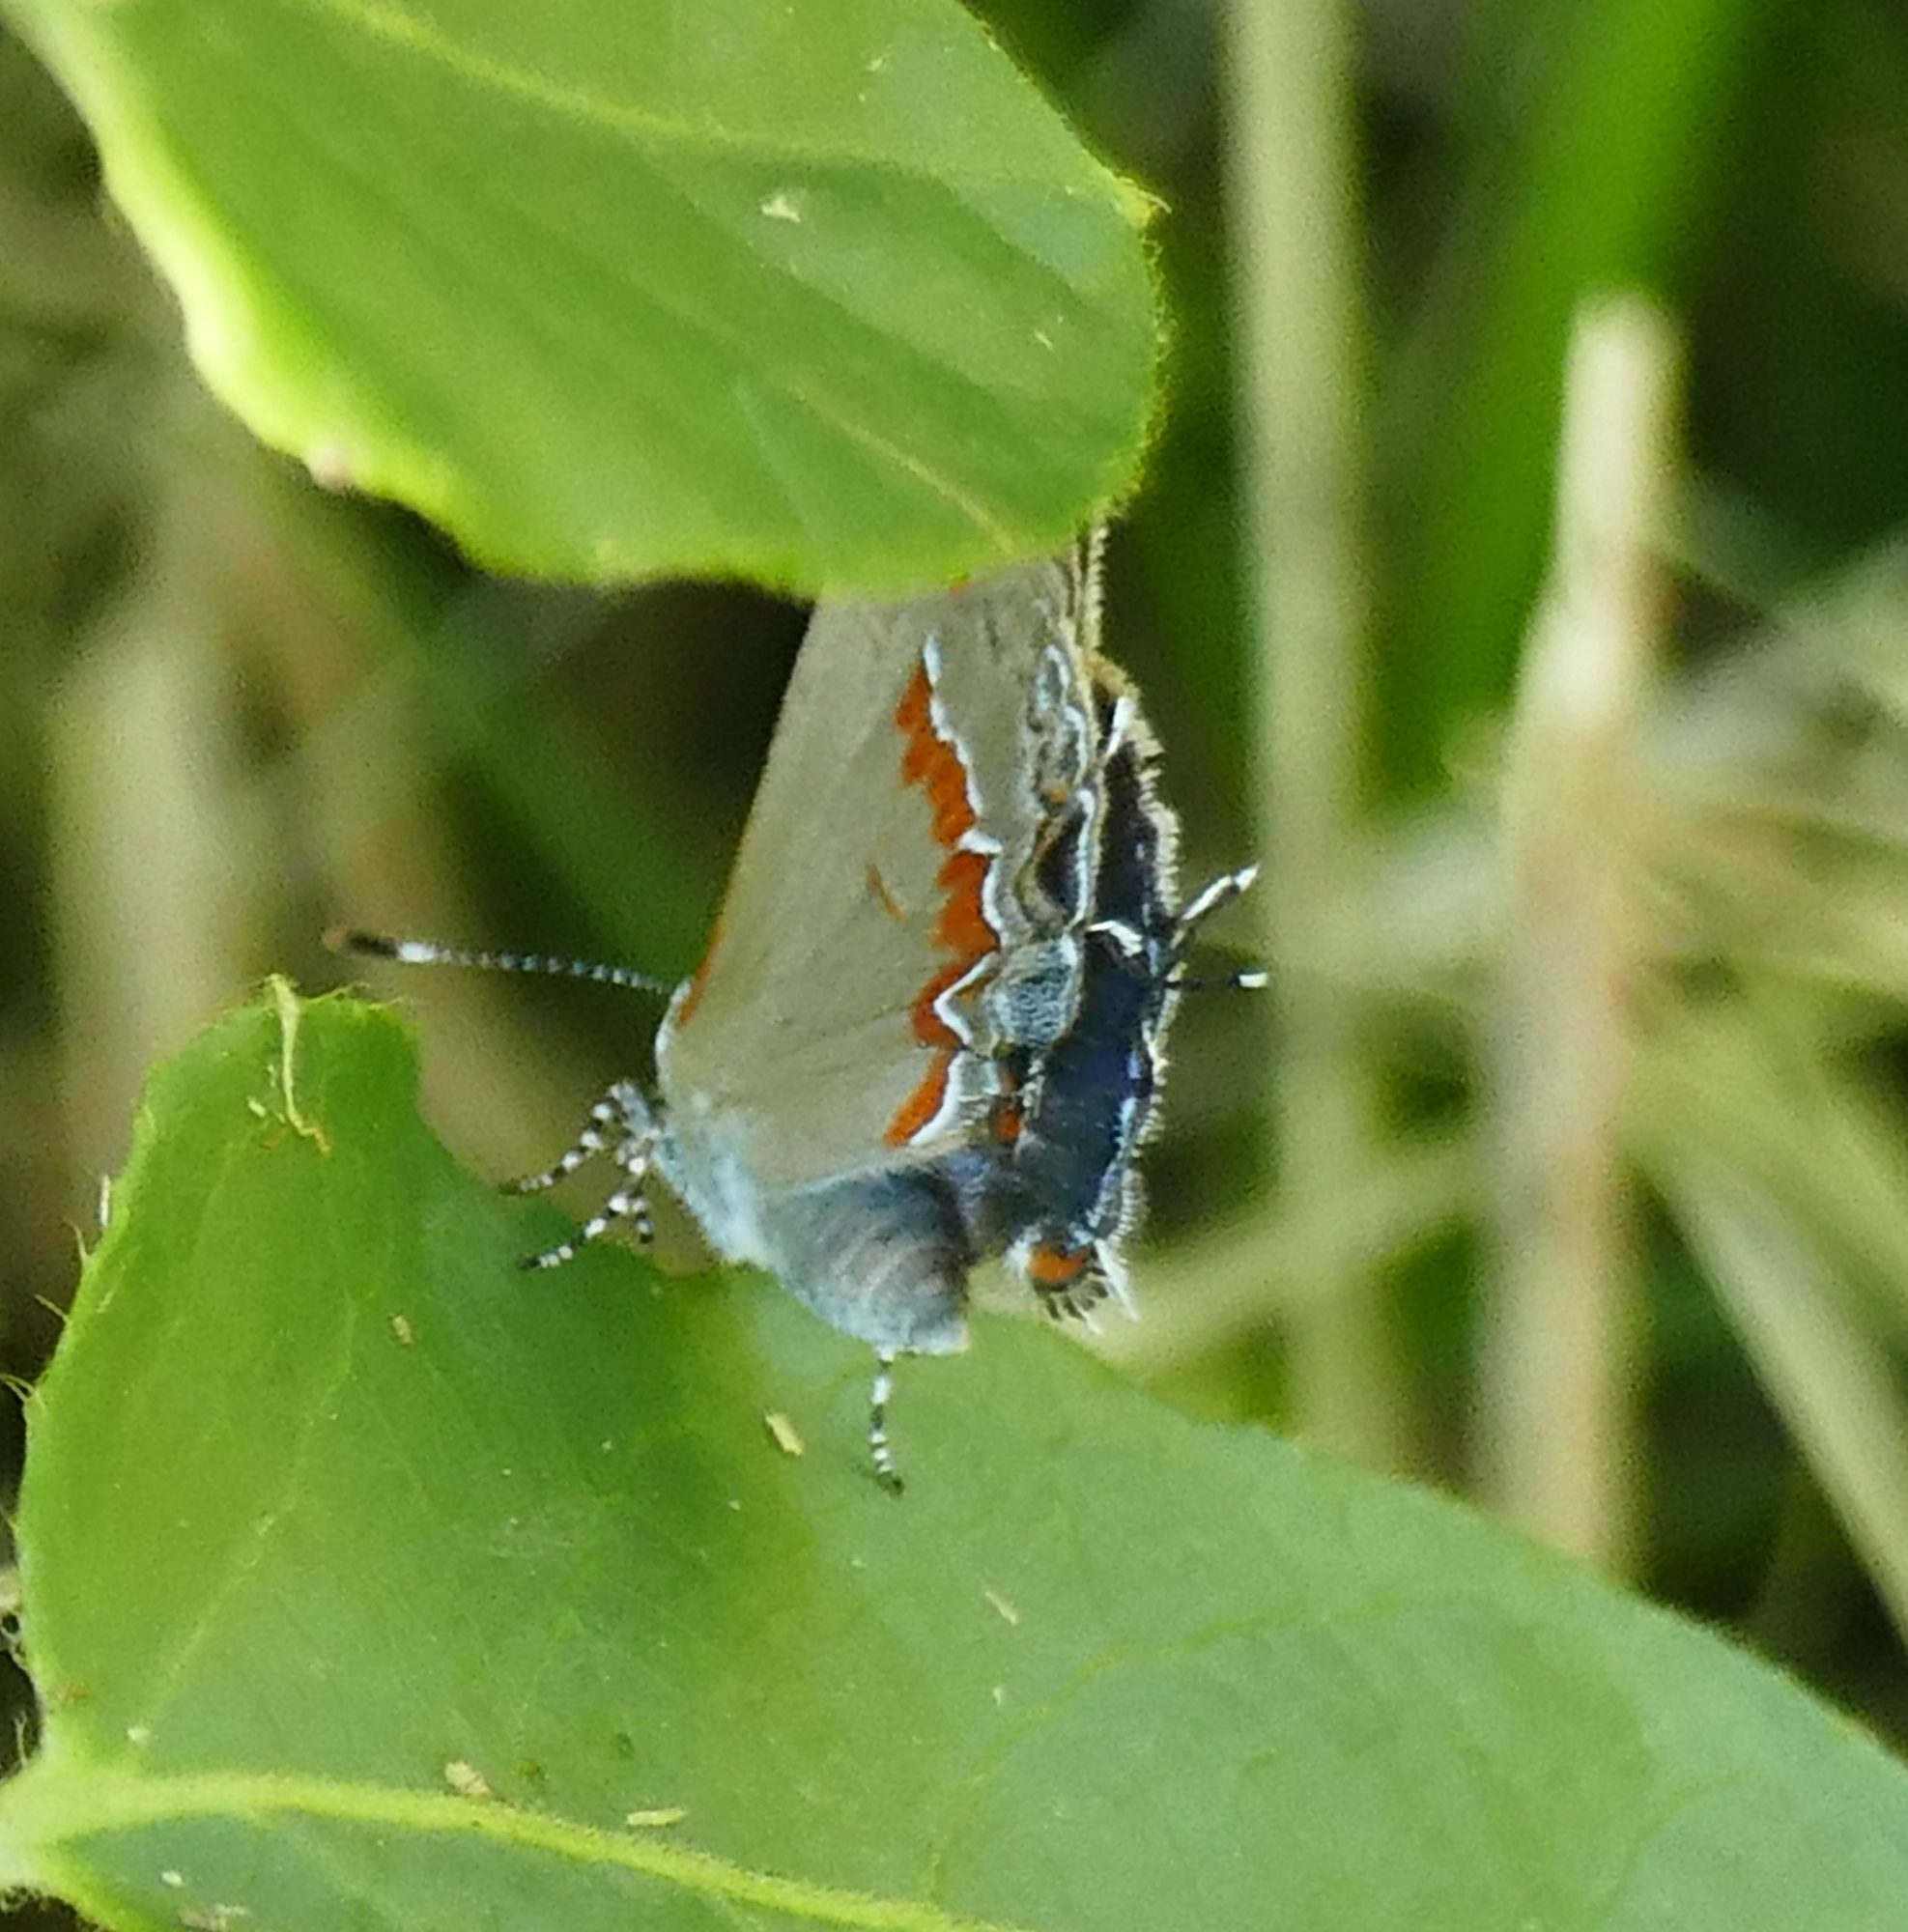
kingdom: Animalia
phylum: Arthropoda
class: Insecta
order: Lepidoptera
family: Lycaenidae
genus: Calycopis
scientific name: Calycopis cecrops
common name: Red-banded hairstreak
